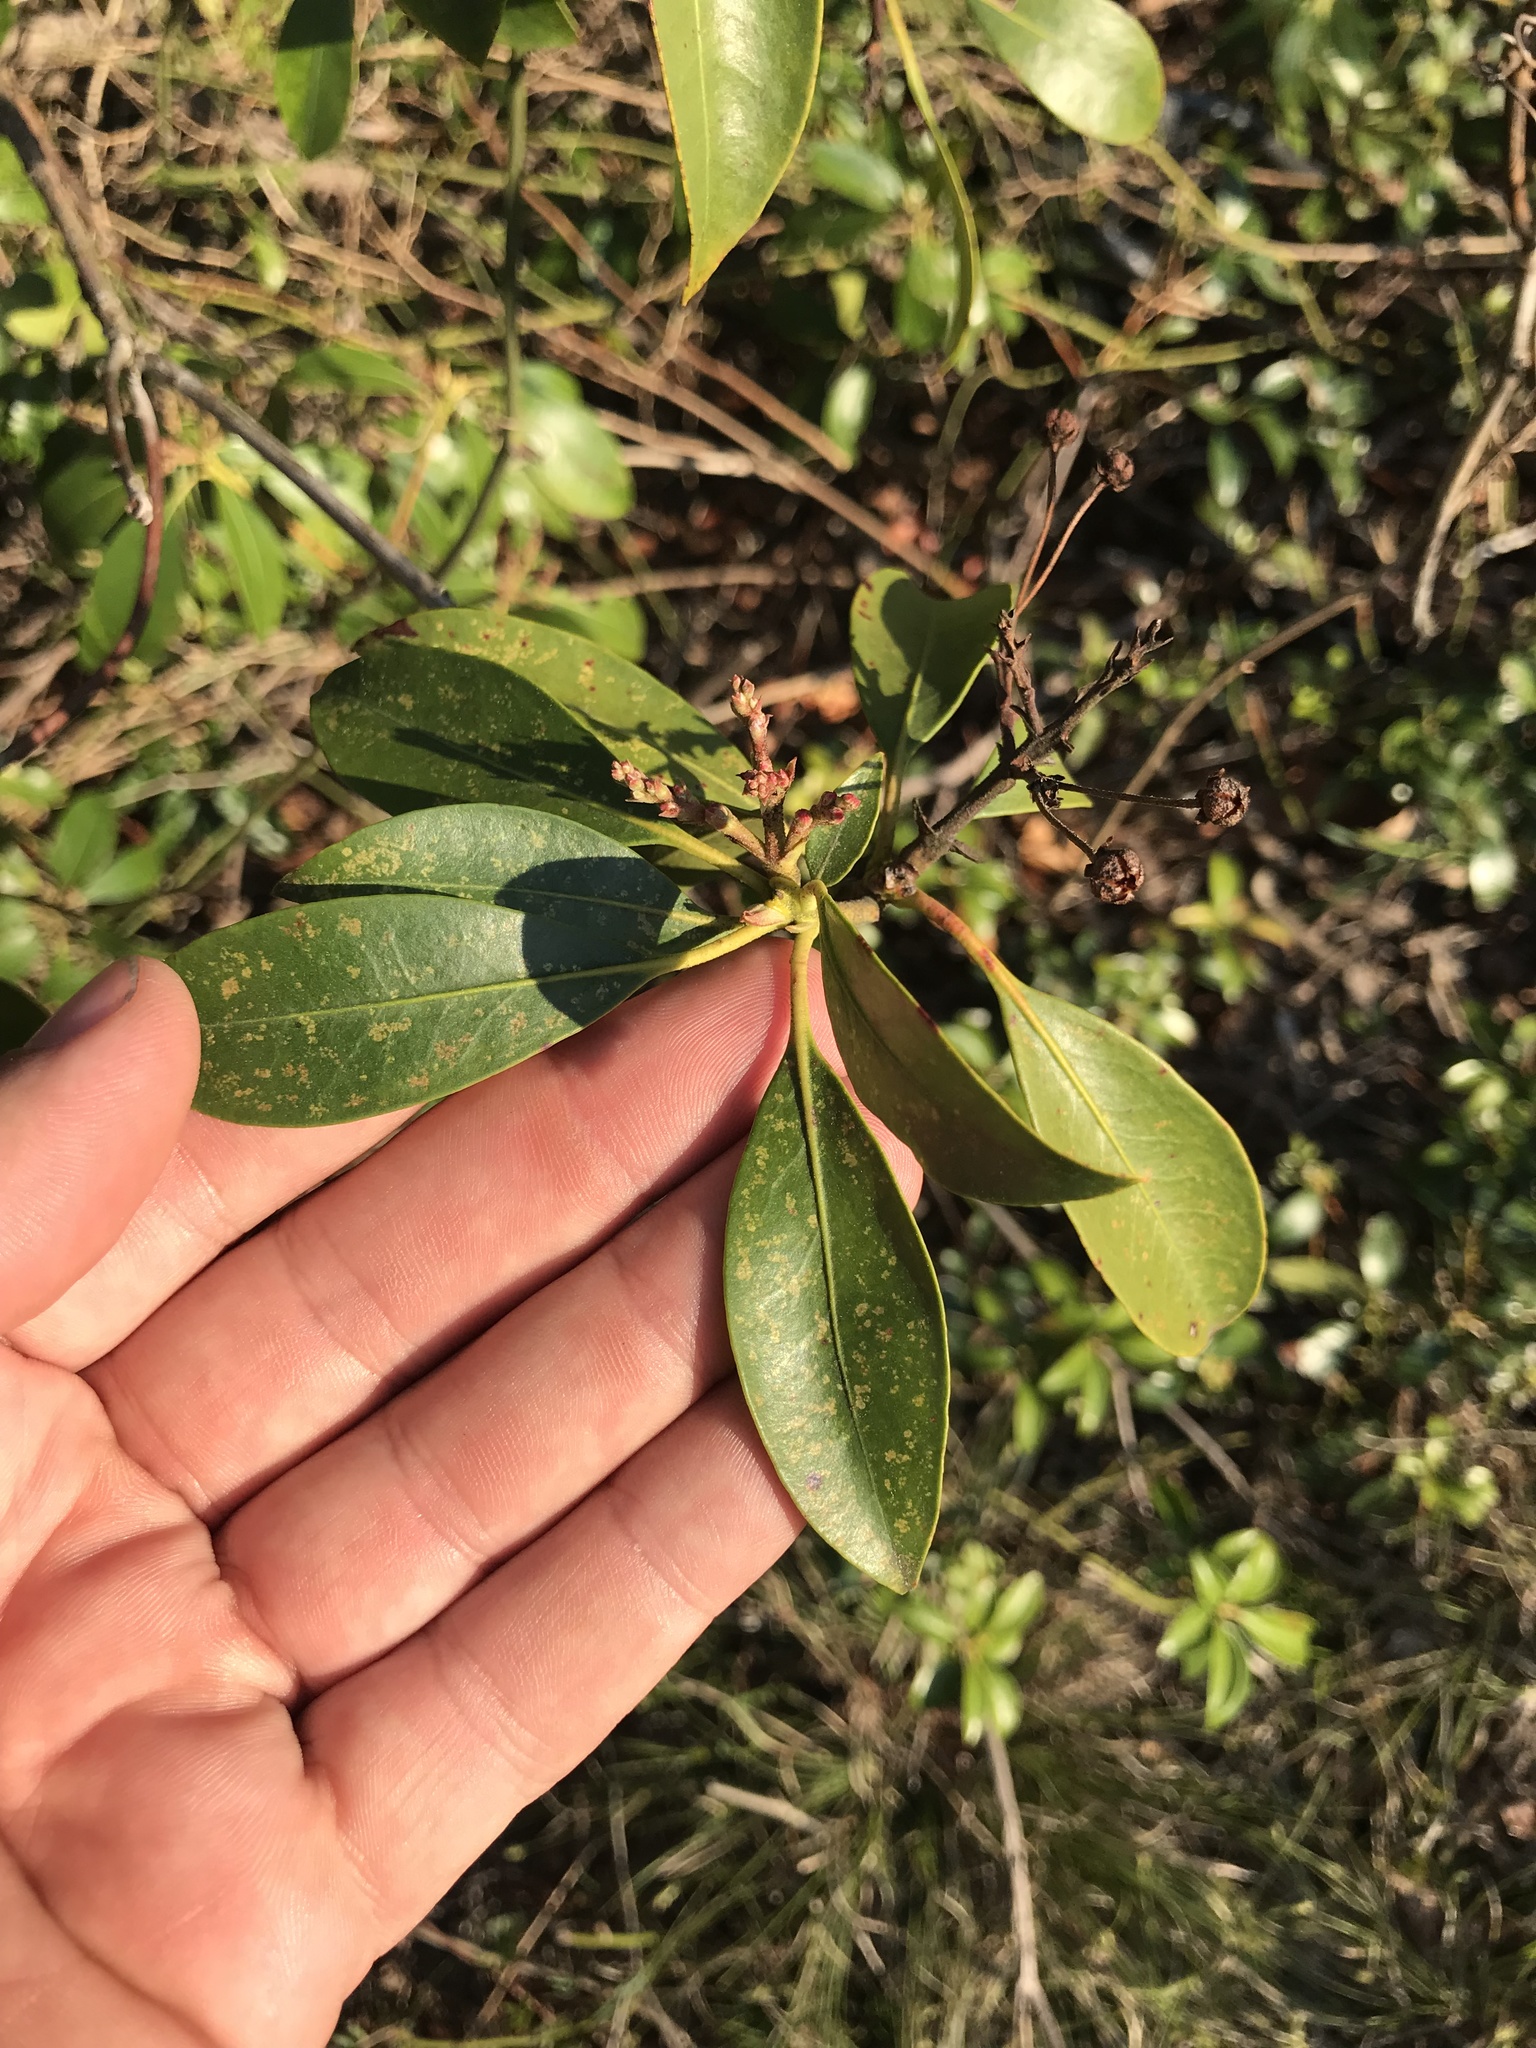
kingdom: Plantae
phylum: Tracheophyta
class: Magnoliopsida
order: Ericales
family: Ericaceae
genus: Kalmia
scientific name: Kalmia latifolia
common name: Mountain-laurel
